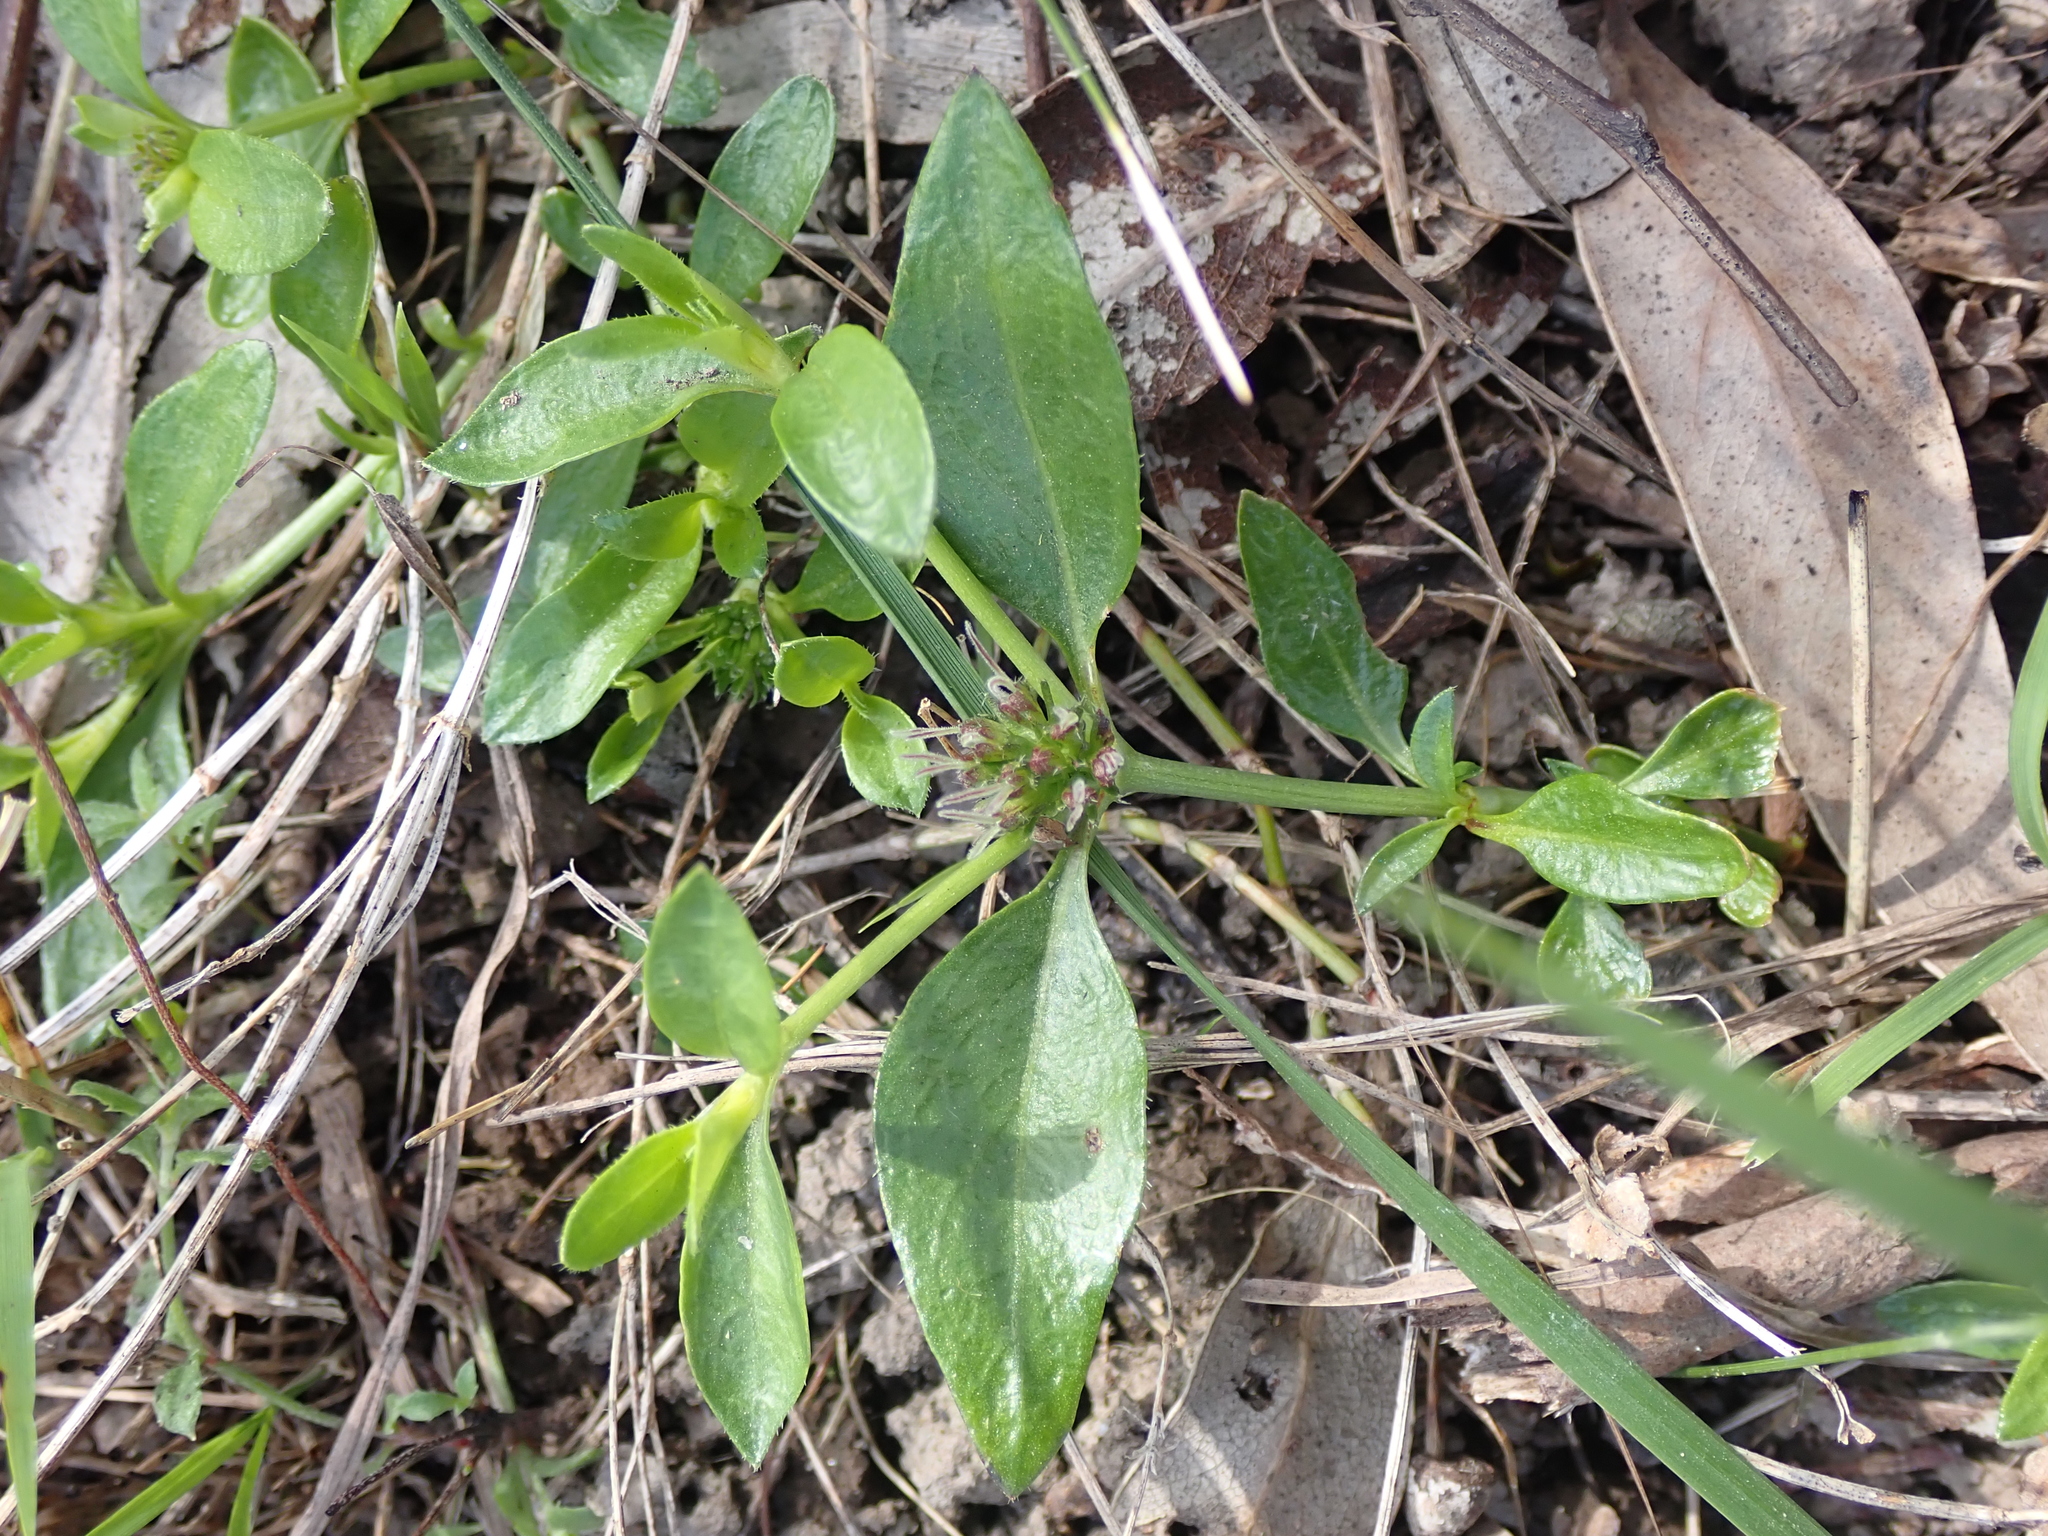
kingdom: Plantae
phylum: Tracheophyta
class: Magnoliopsida
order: Gentianales
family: Rubiaceae
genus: Opercularia
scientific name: Opercularia ovata
